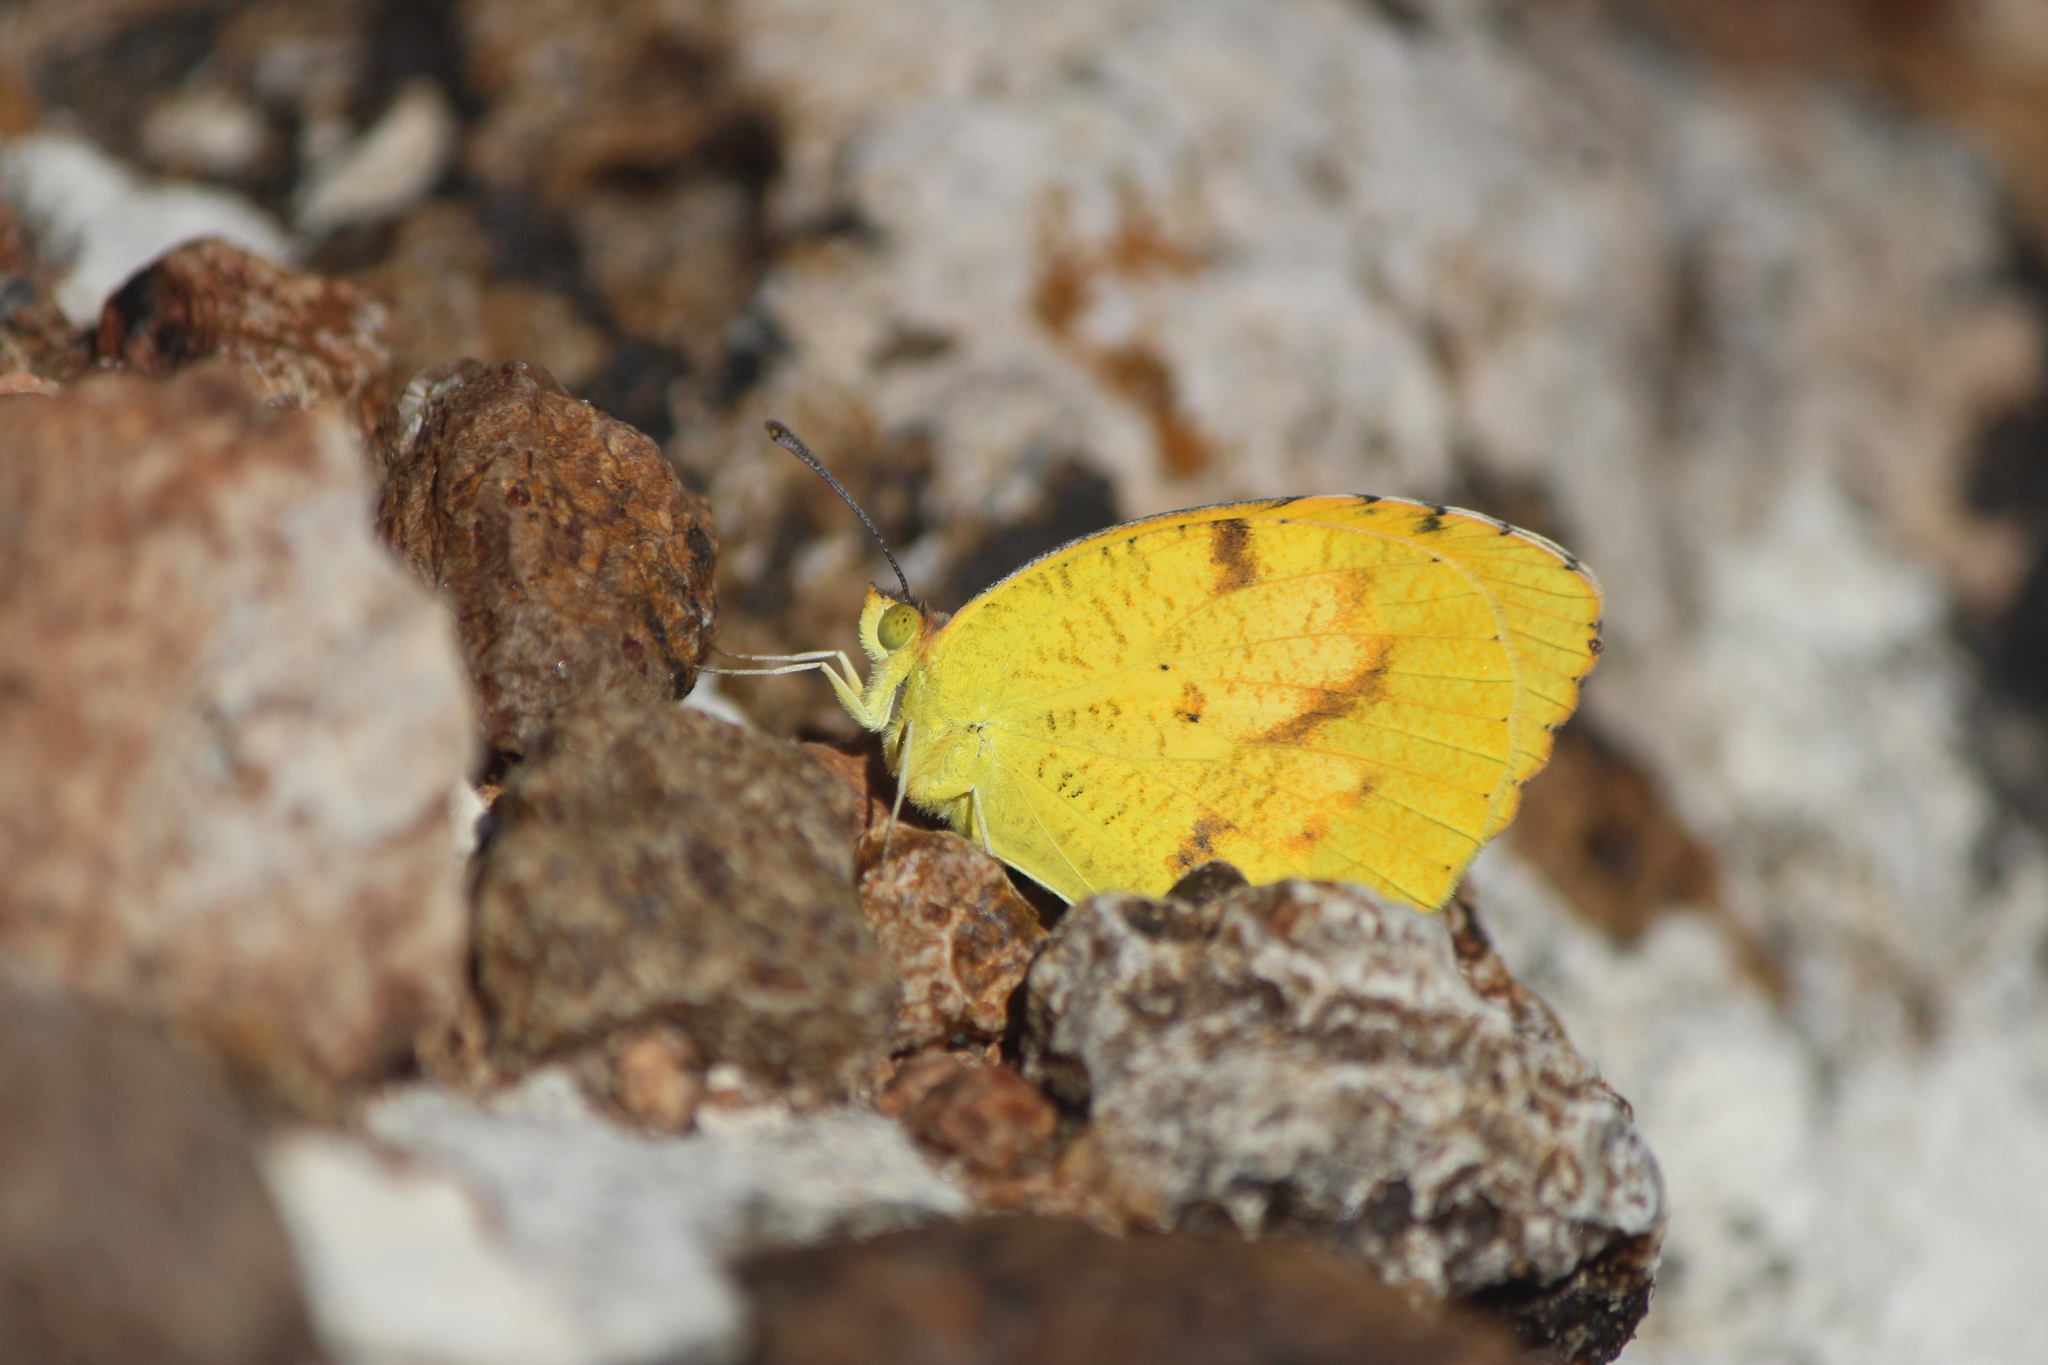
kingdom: Animalia
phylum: Arthropoda
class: Insecta
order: Lepidoptera
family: Pieridae
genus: Abaeis
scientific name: Abaeis nicippe
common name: Sleepy orange
